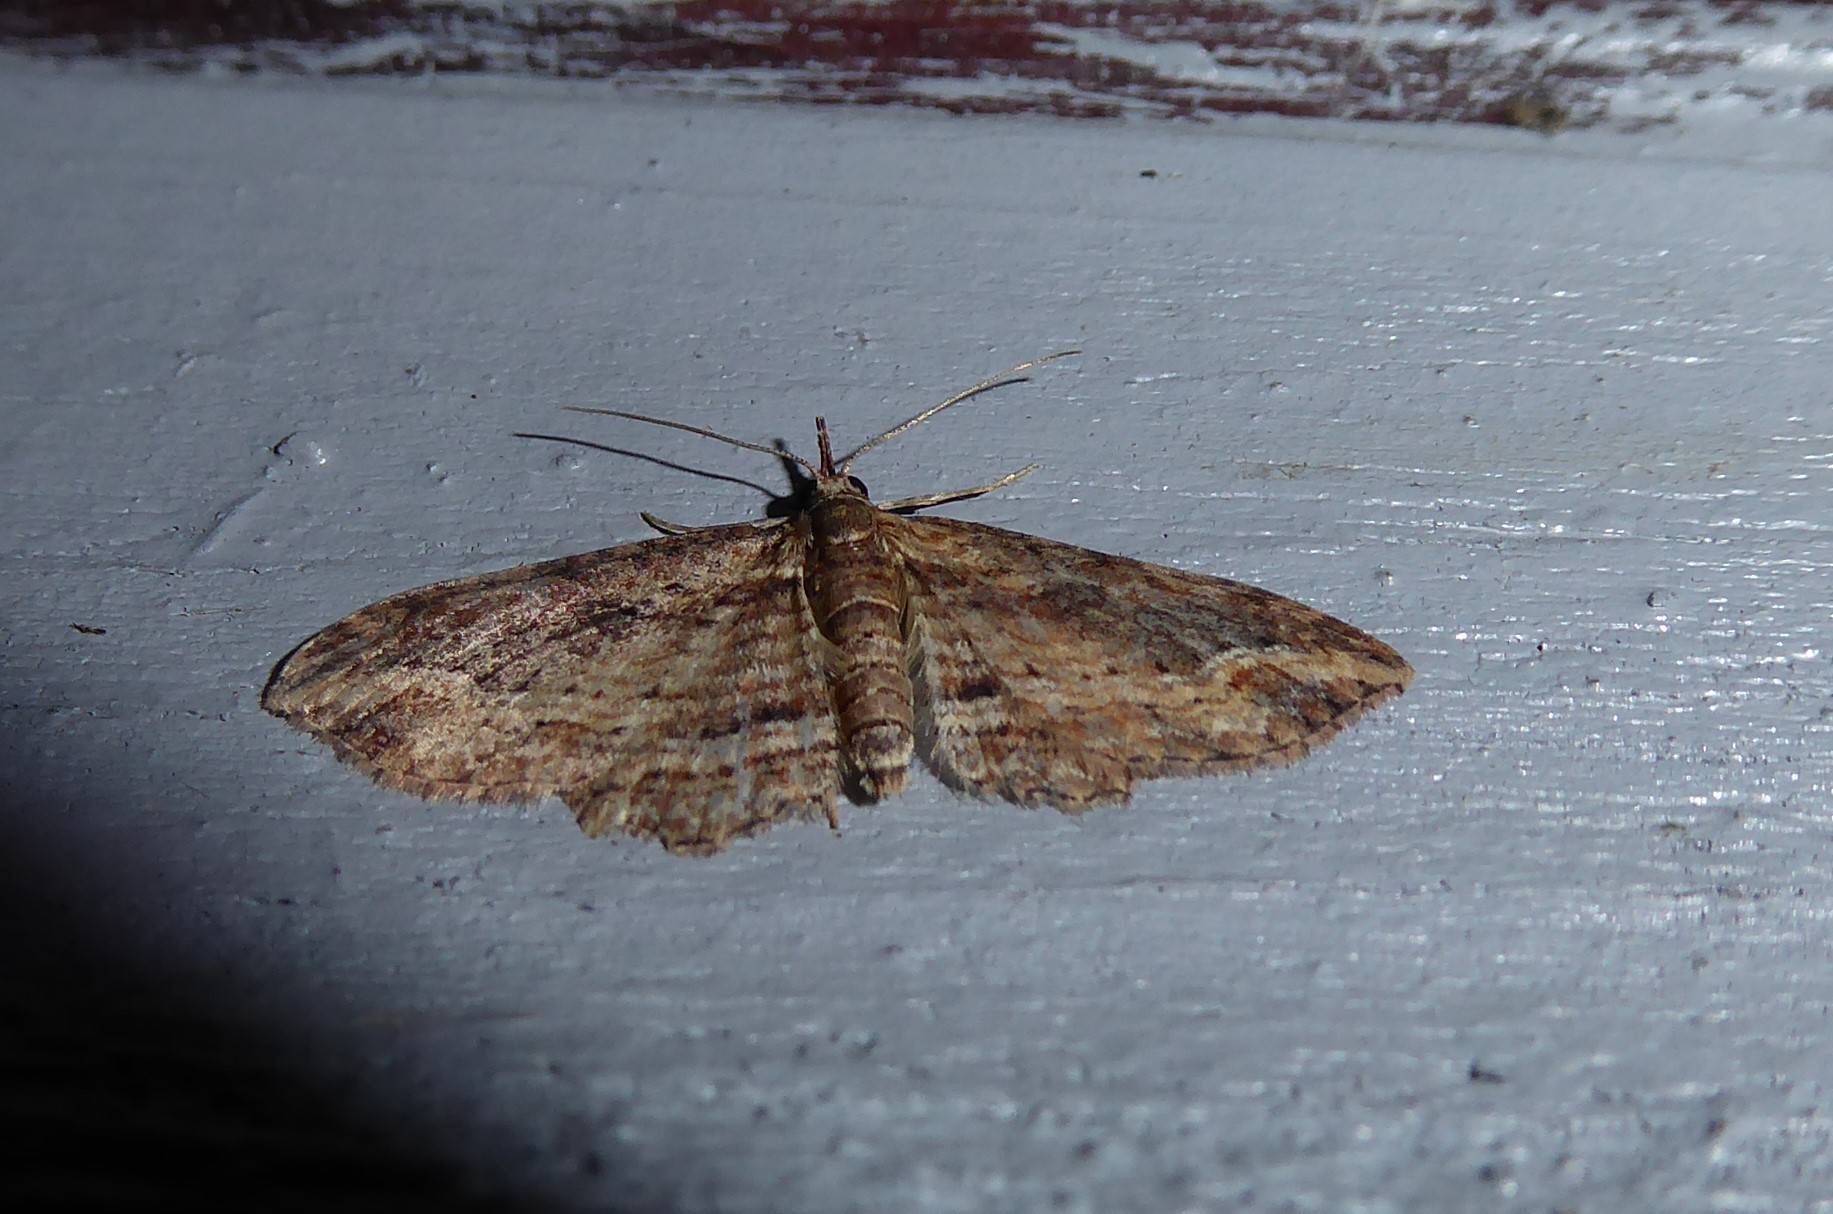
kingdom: Animalia
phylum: Arthropoda
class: Insecta
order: Lepidoptera
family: Geometridae
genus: Chloroclystis
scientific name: Chloroclystis filata
